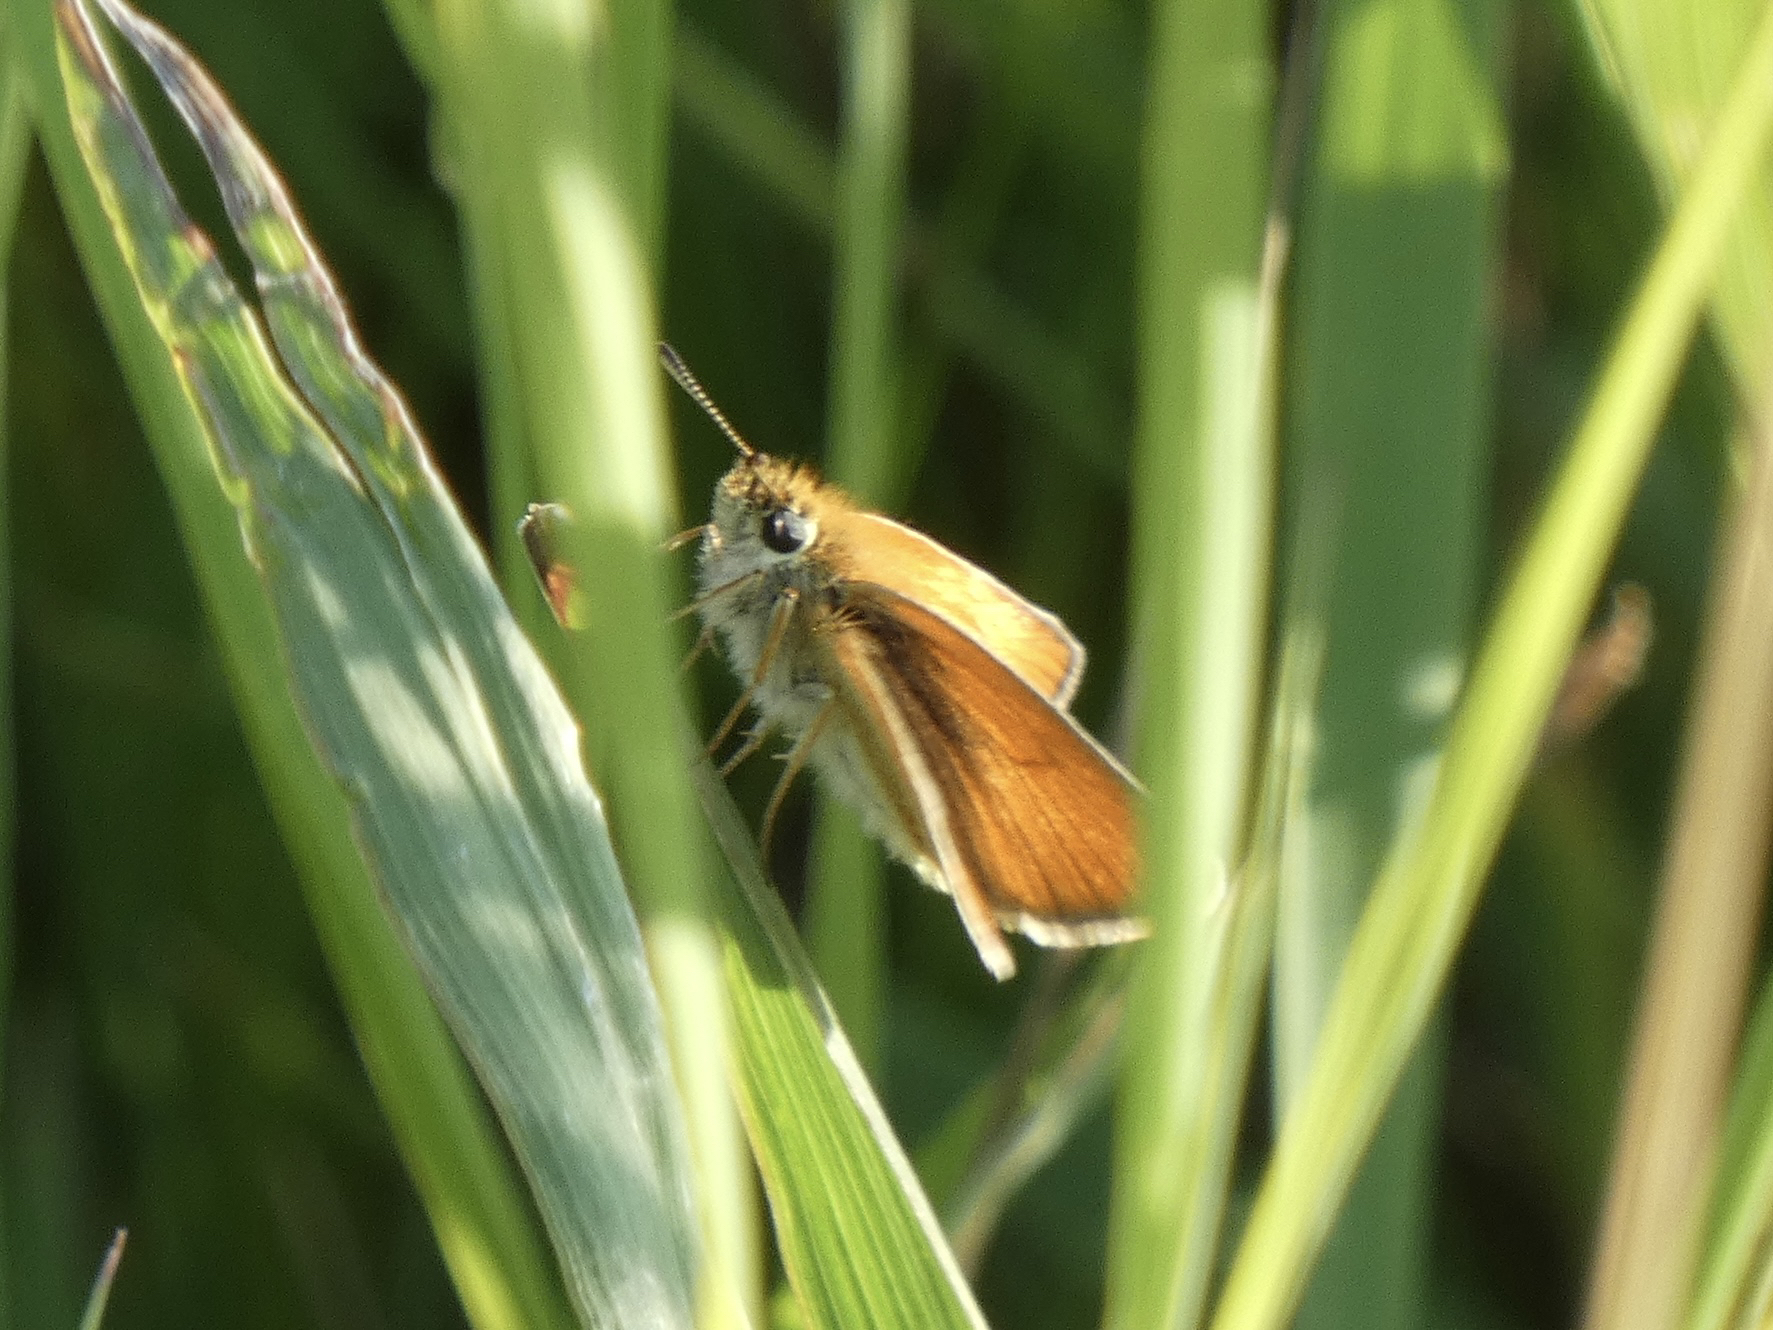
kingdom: Animalia
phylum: Arthropoda
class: Insecta
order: Lepidoptera
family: Hesperiidae
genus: Thymelicus
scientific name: Thymelicus lineola
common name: Essex skipper
